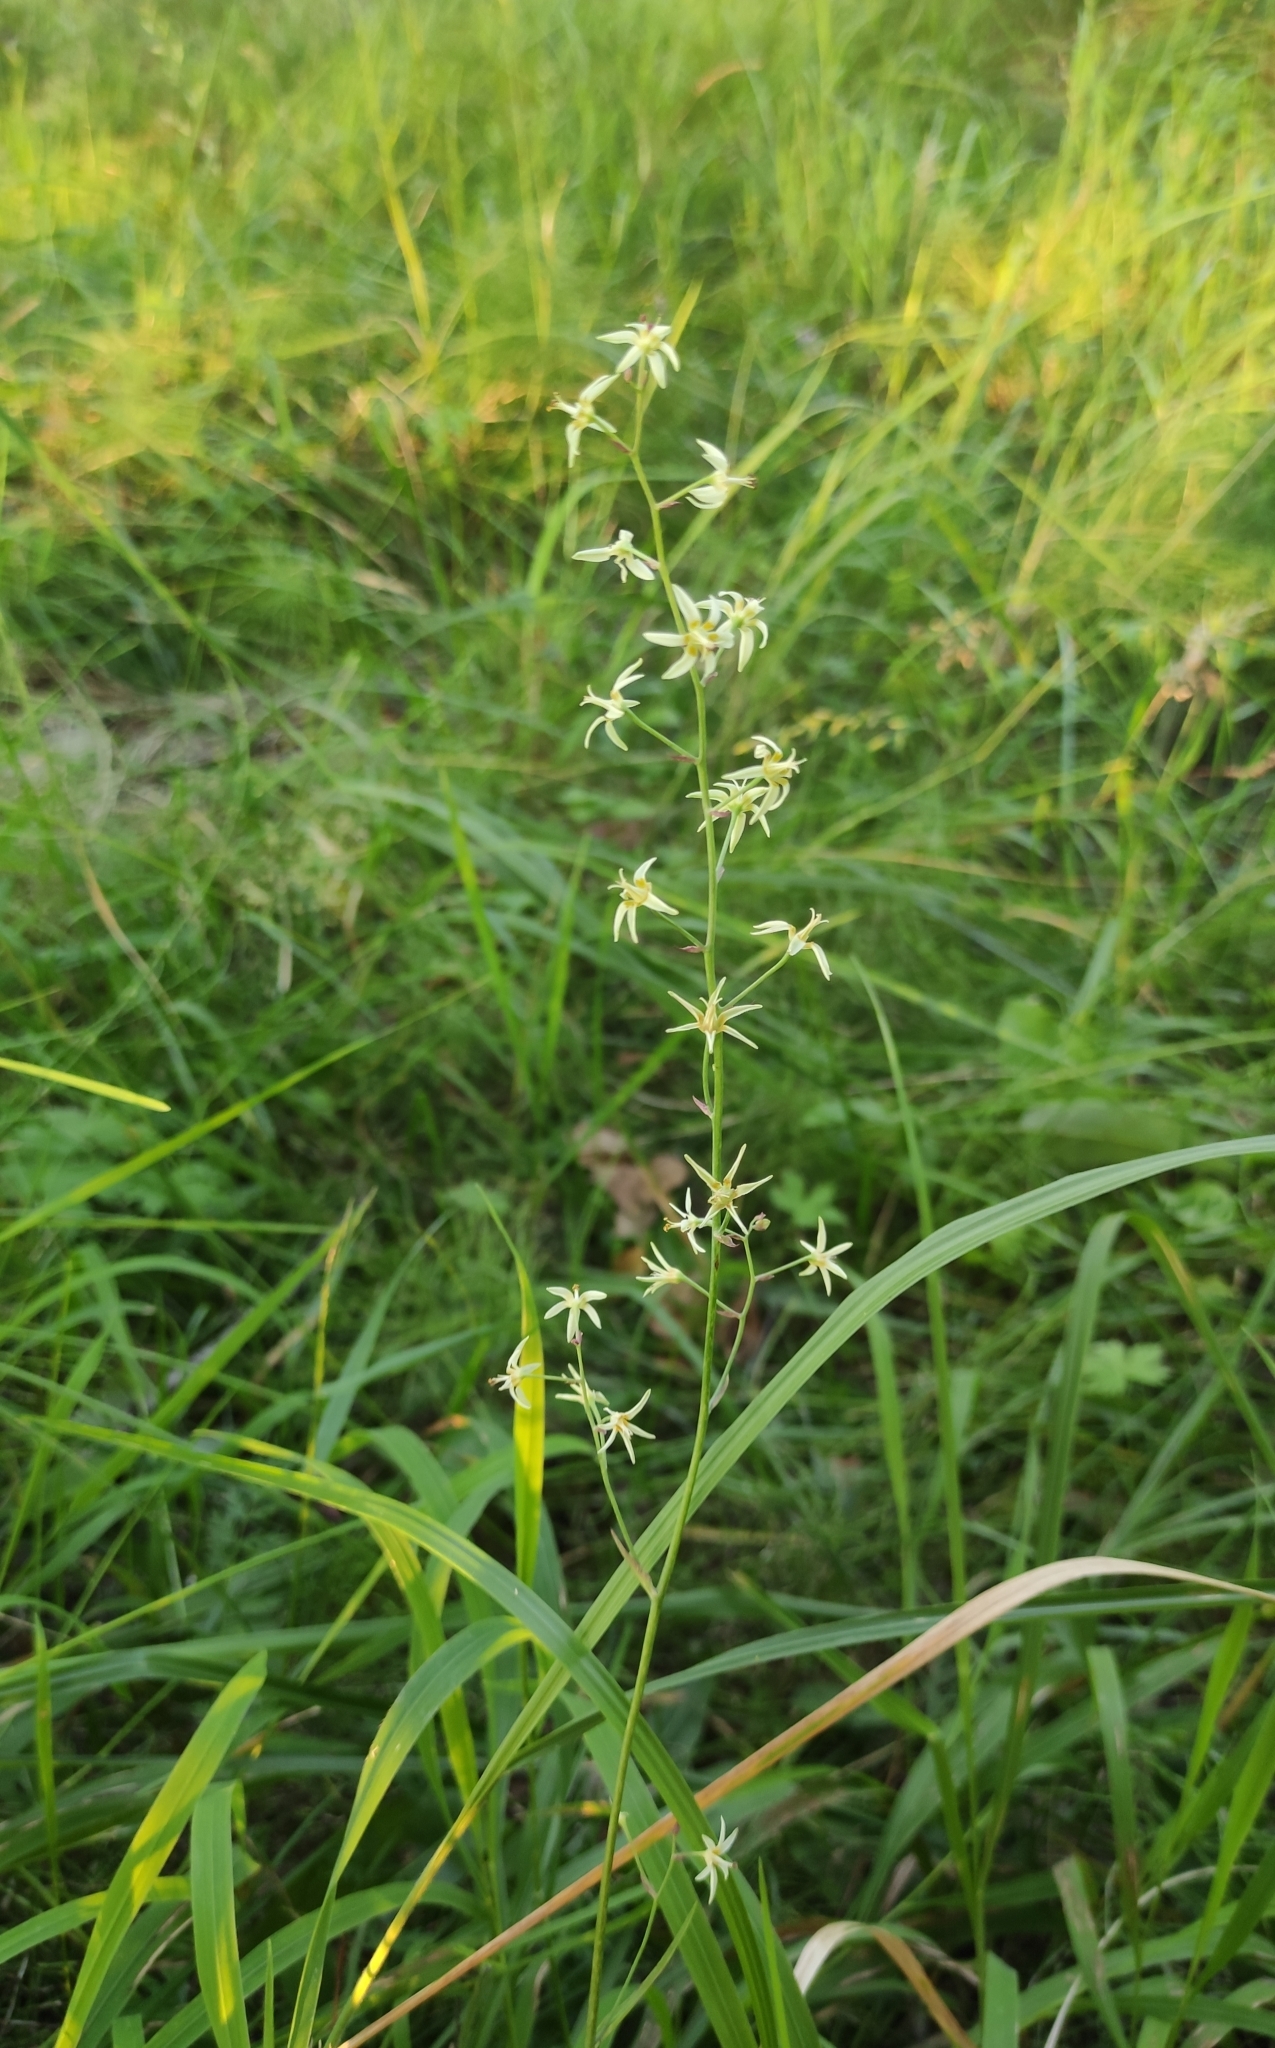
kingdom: Plantae
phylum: Tracheophyta
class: Liliopsida
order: Liliales
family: Melanthiaceae
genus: Anticlea
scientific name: Anticlea sibirica
